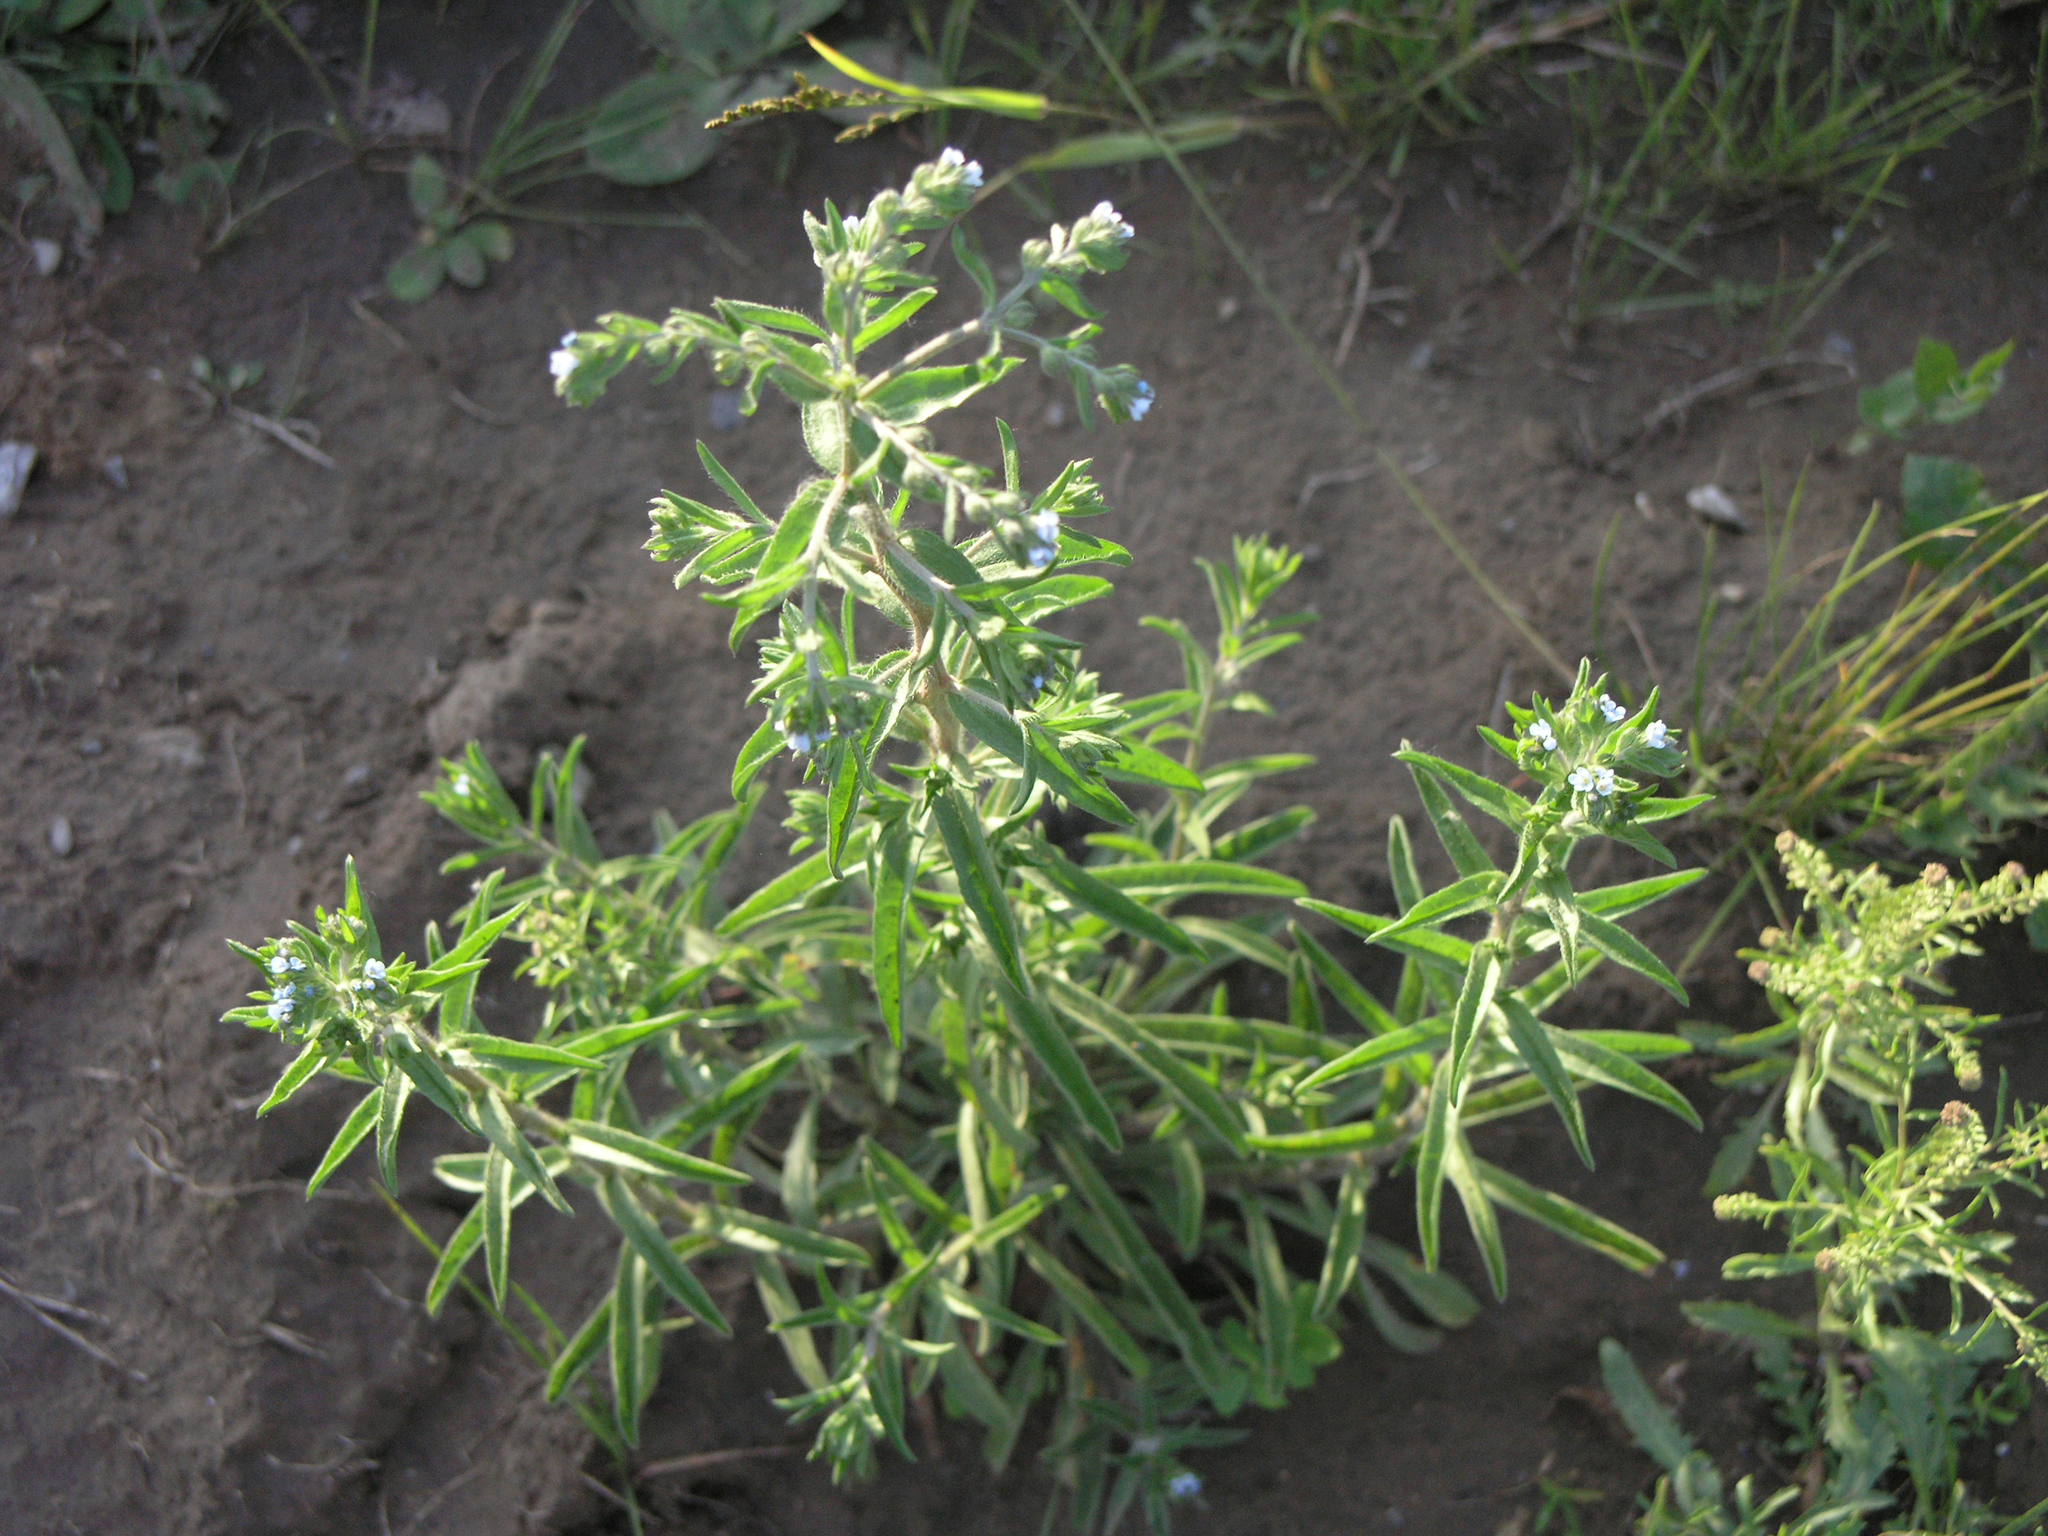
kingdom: Plantae
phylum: Tracheophyta
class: Magnoliopsida
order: Boraginales
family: Boraginaceae
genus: Lappula
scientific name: Lappula squarrosa
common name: European stickseed
